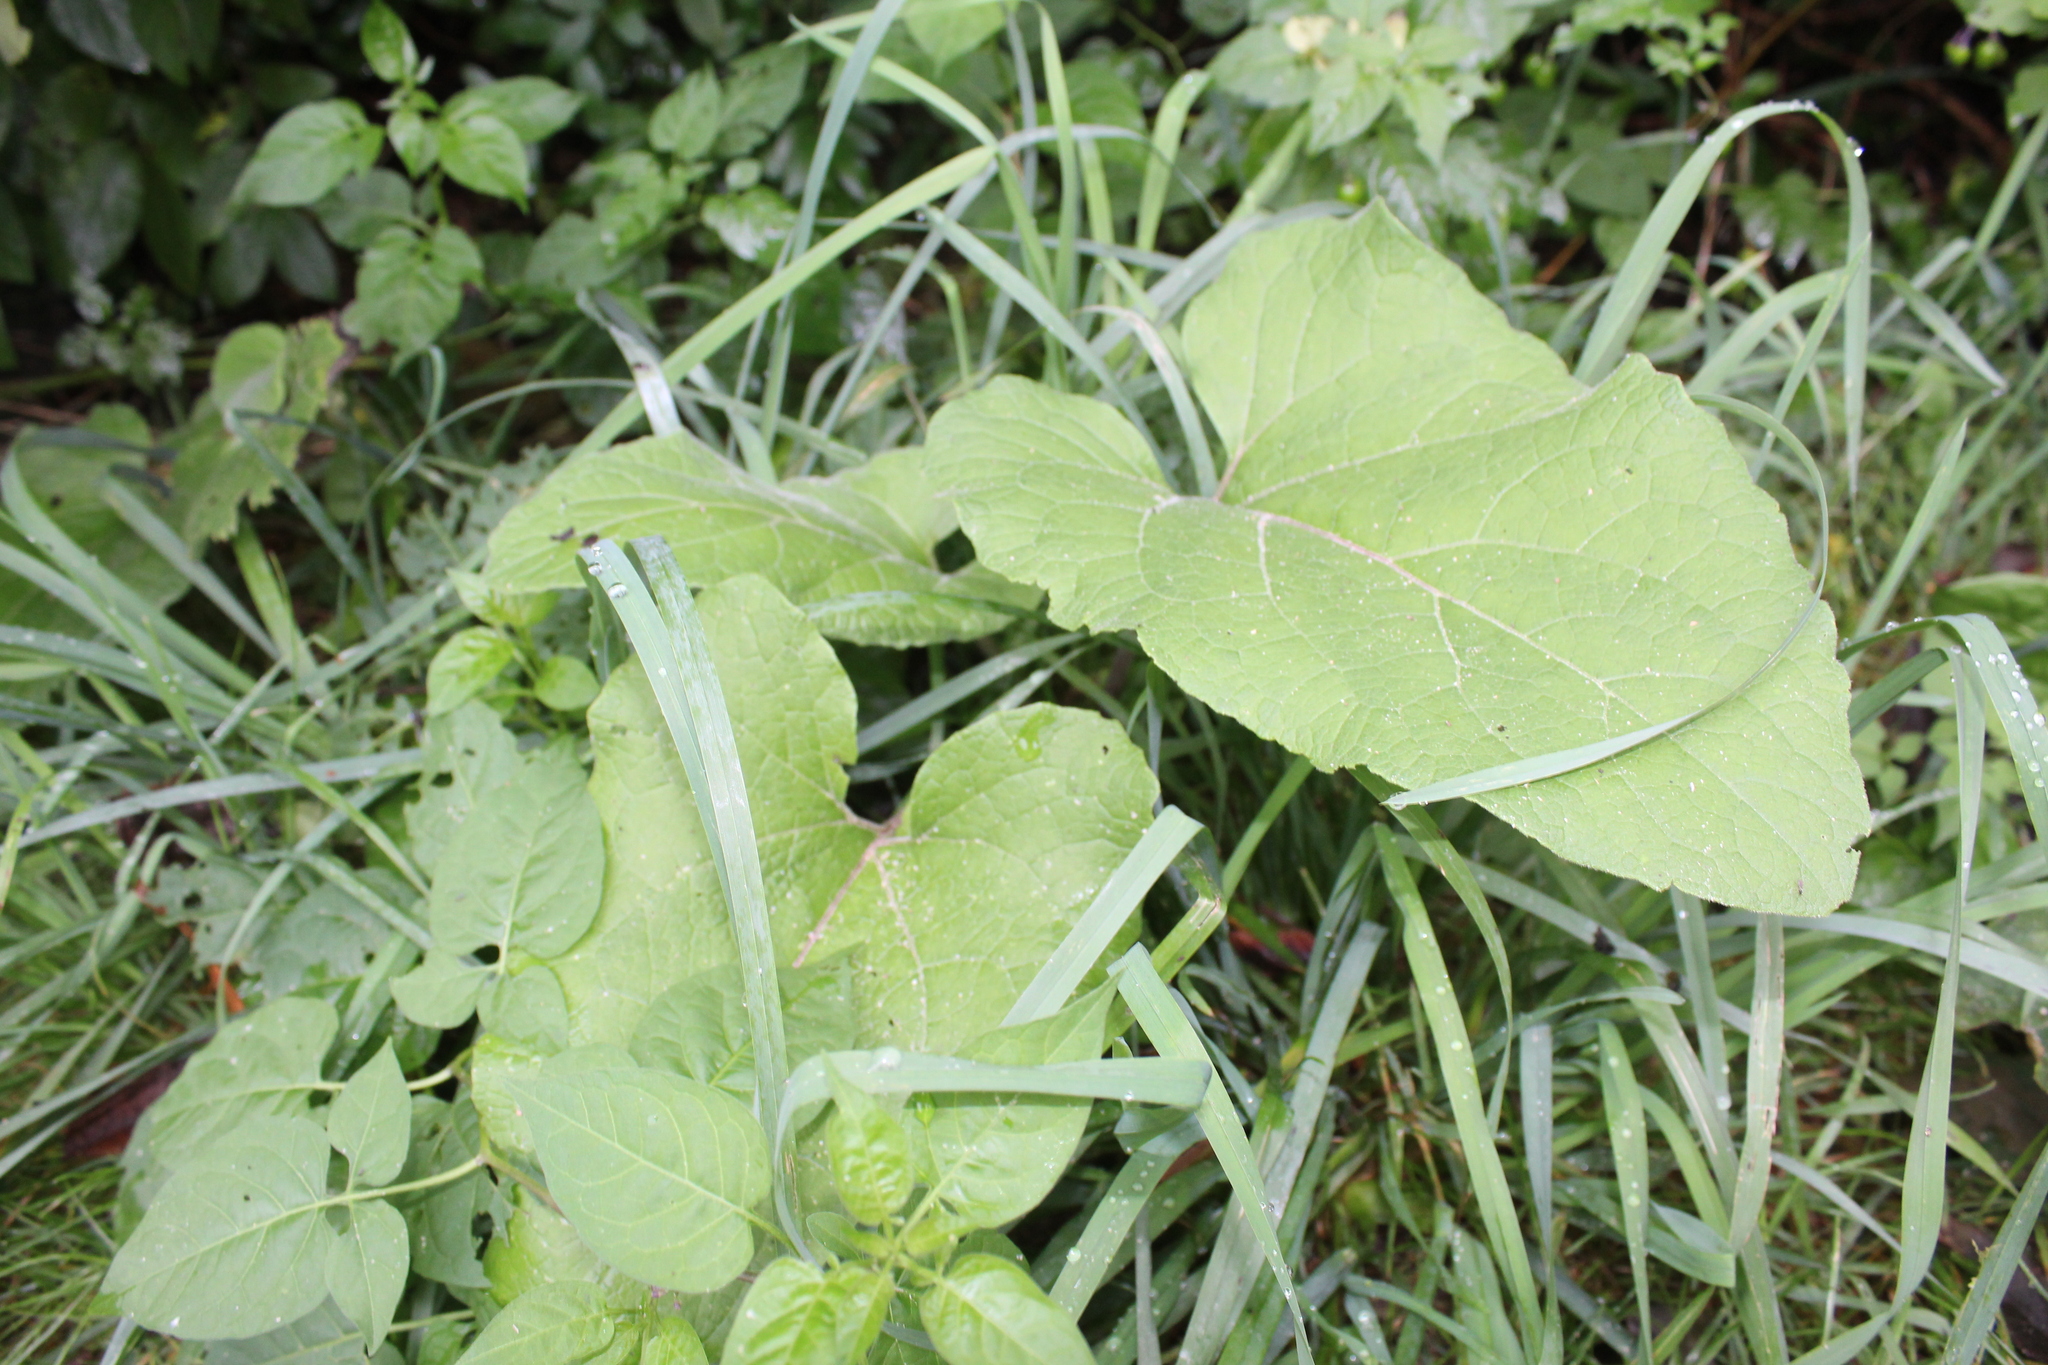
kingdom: Plantae
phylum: Tracheophyta
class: Magnoliopsida
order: Asterales
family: Asteraceae
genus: Arctium
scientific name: Arctium minus
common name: Lesser burdock
